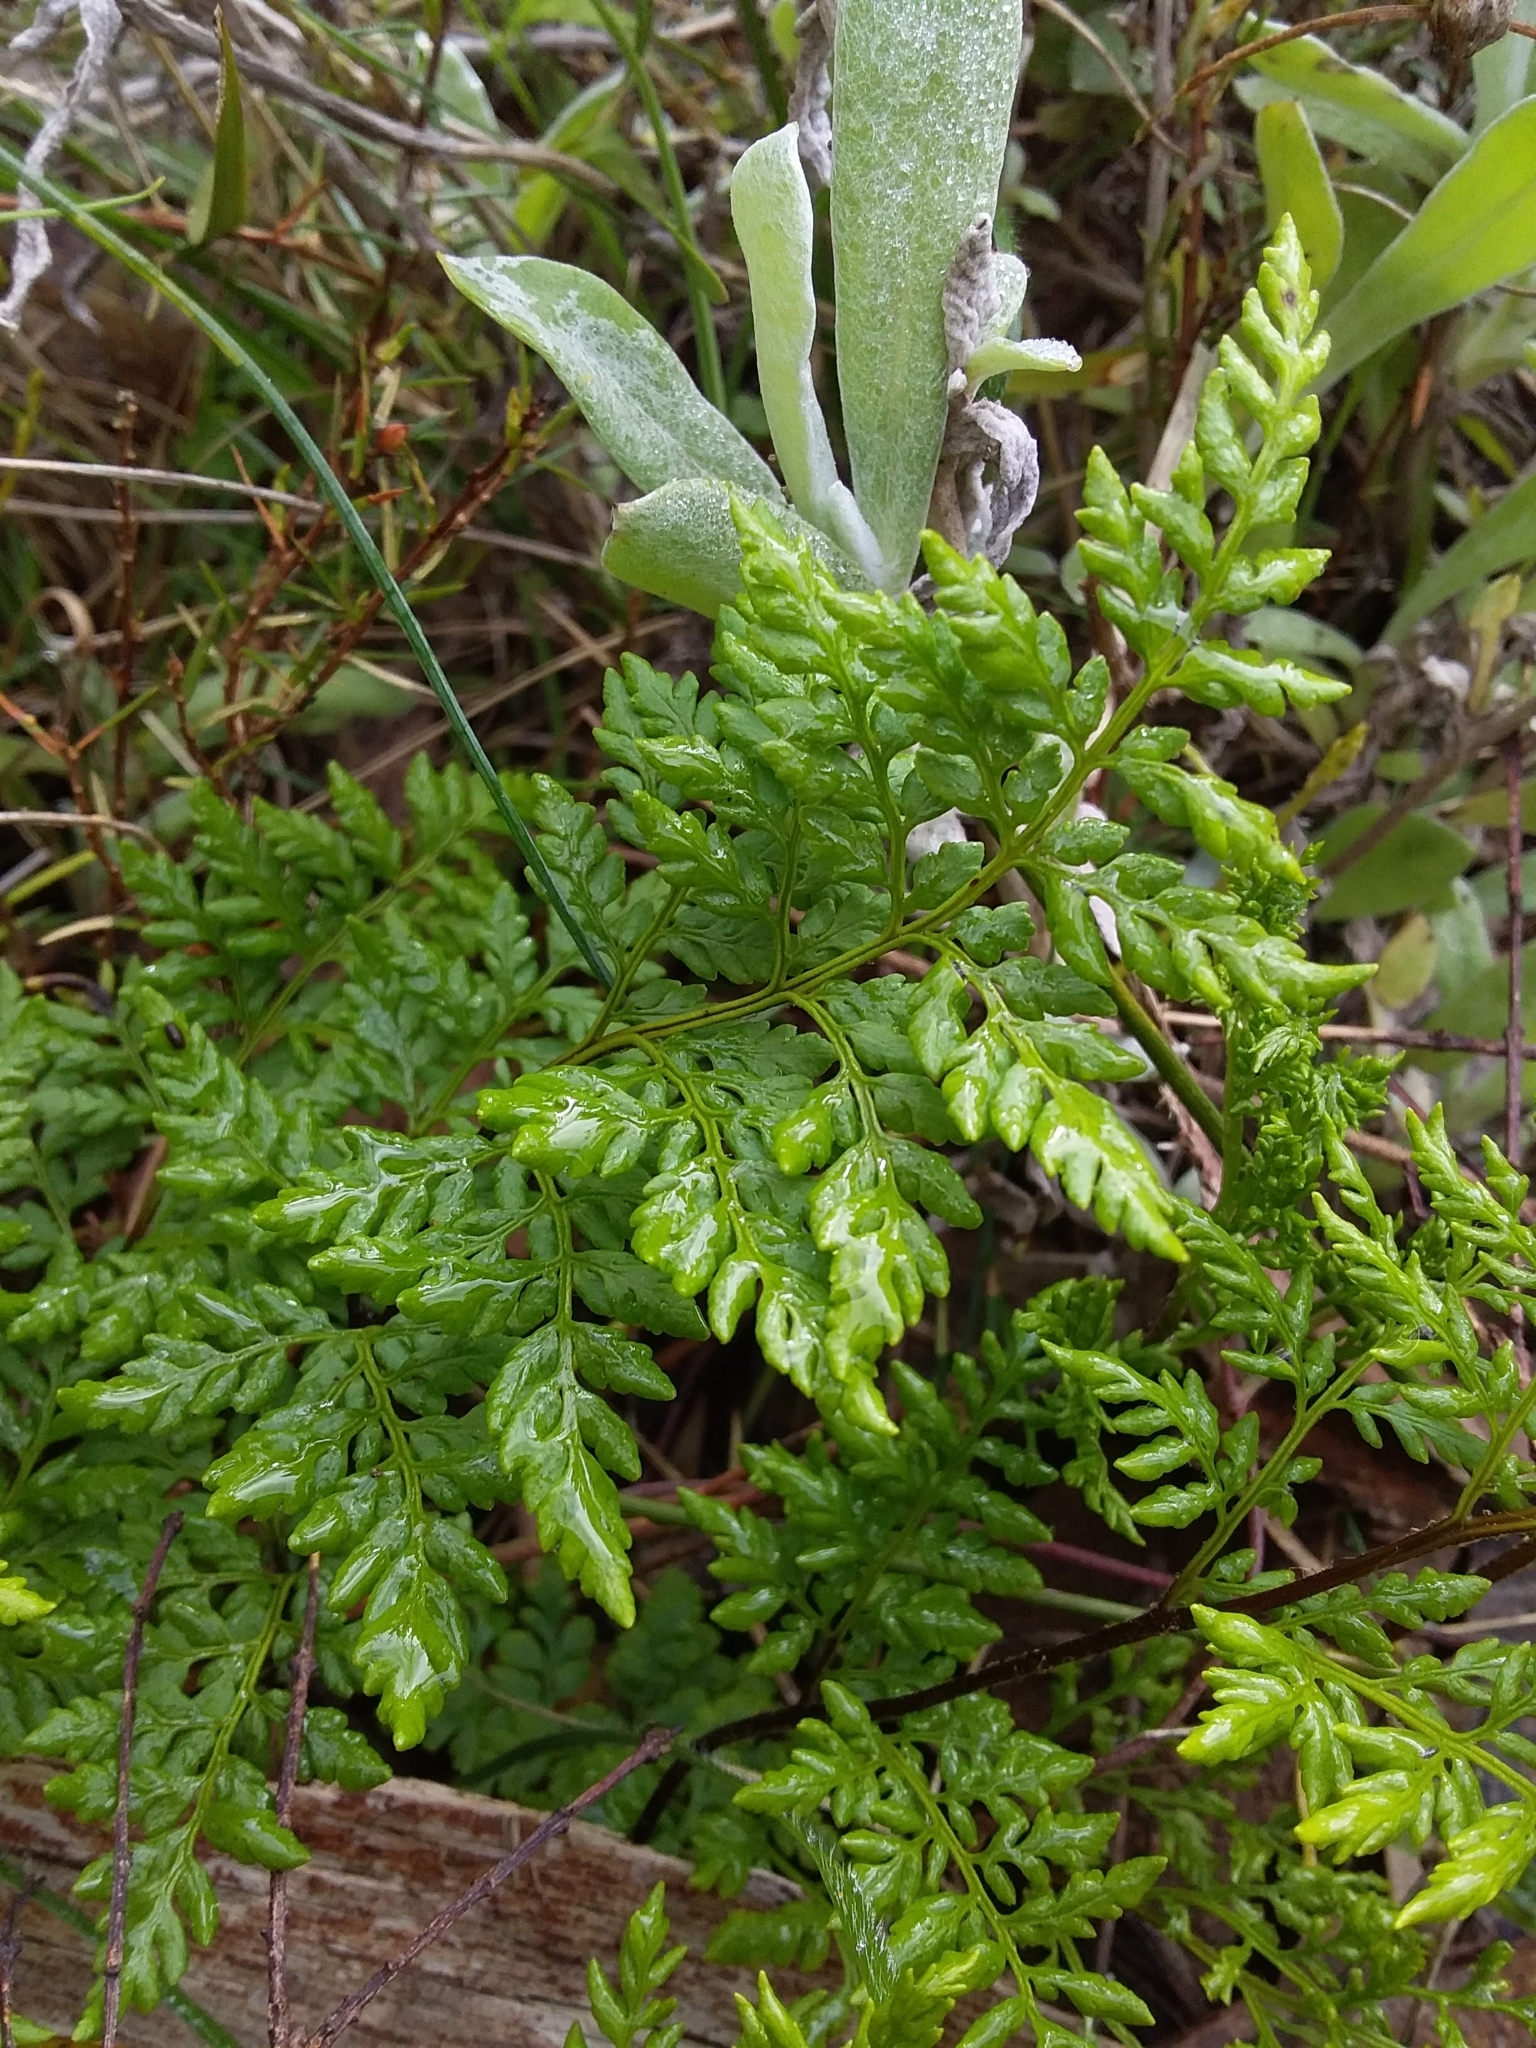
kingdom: Plantae
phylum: Tracheophyta
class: Polypodiopsida
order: Polypodiales
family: Pteridaceae
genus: Cheilanthes
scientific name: Cheilanthes austrotenuifolia
